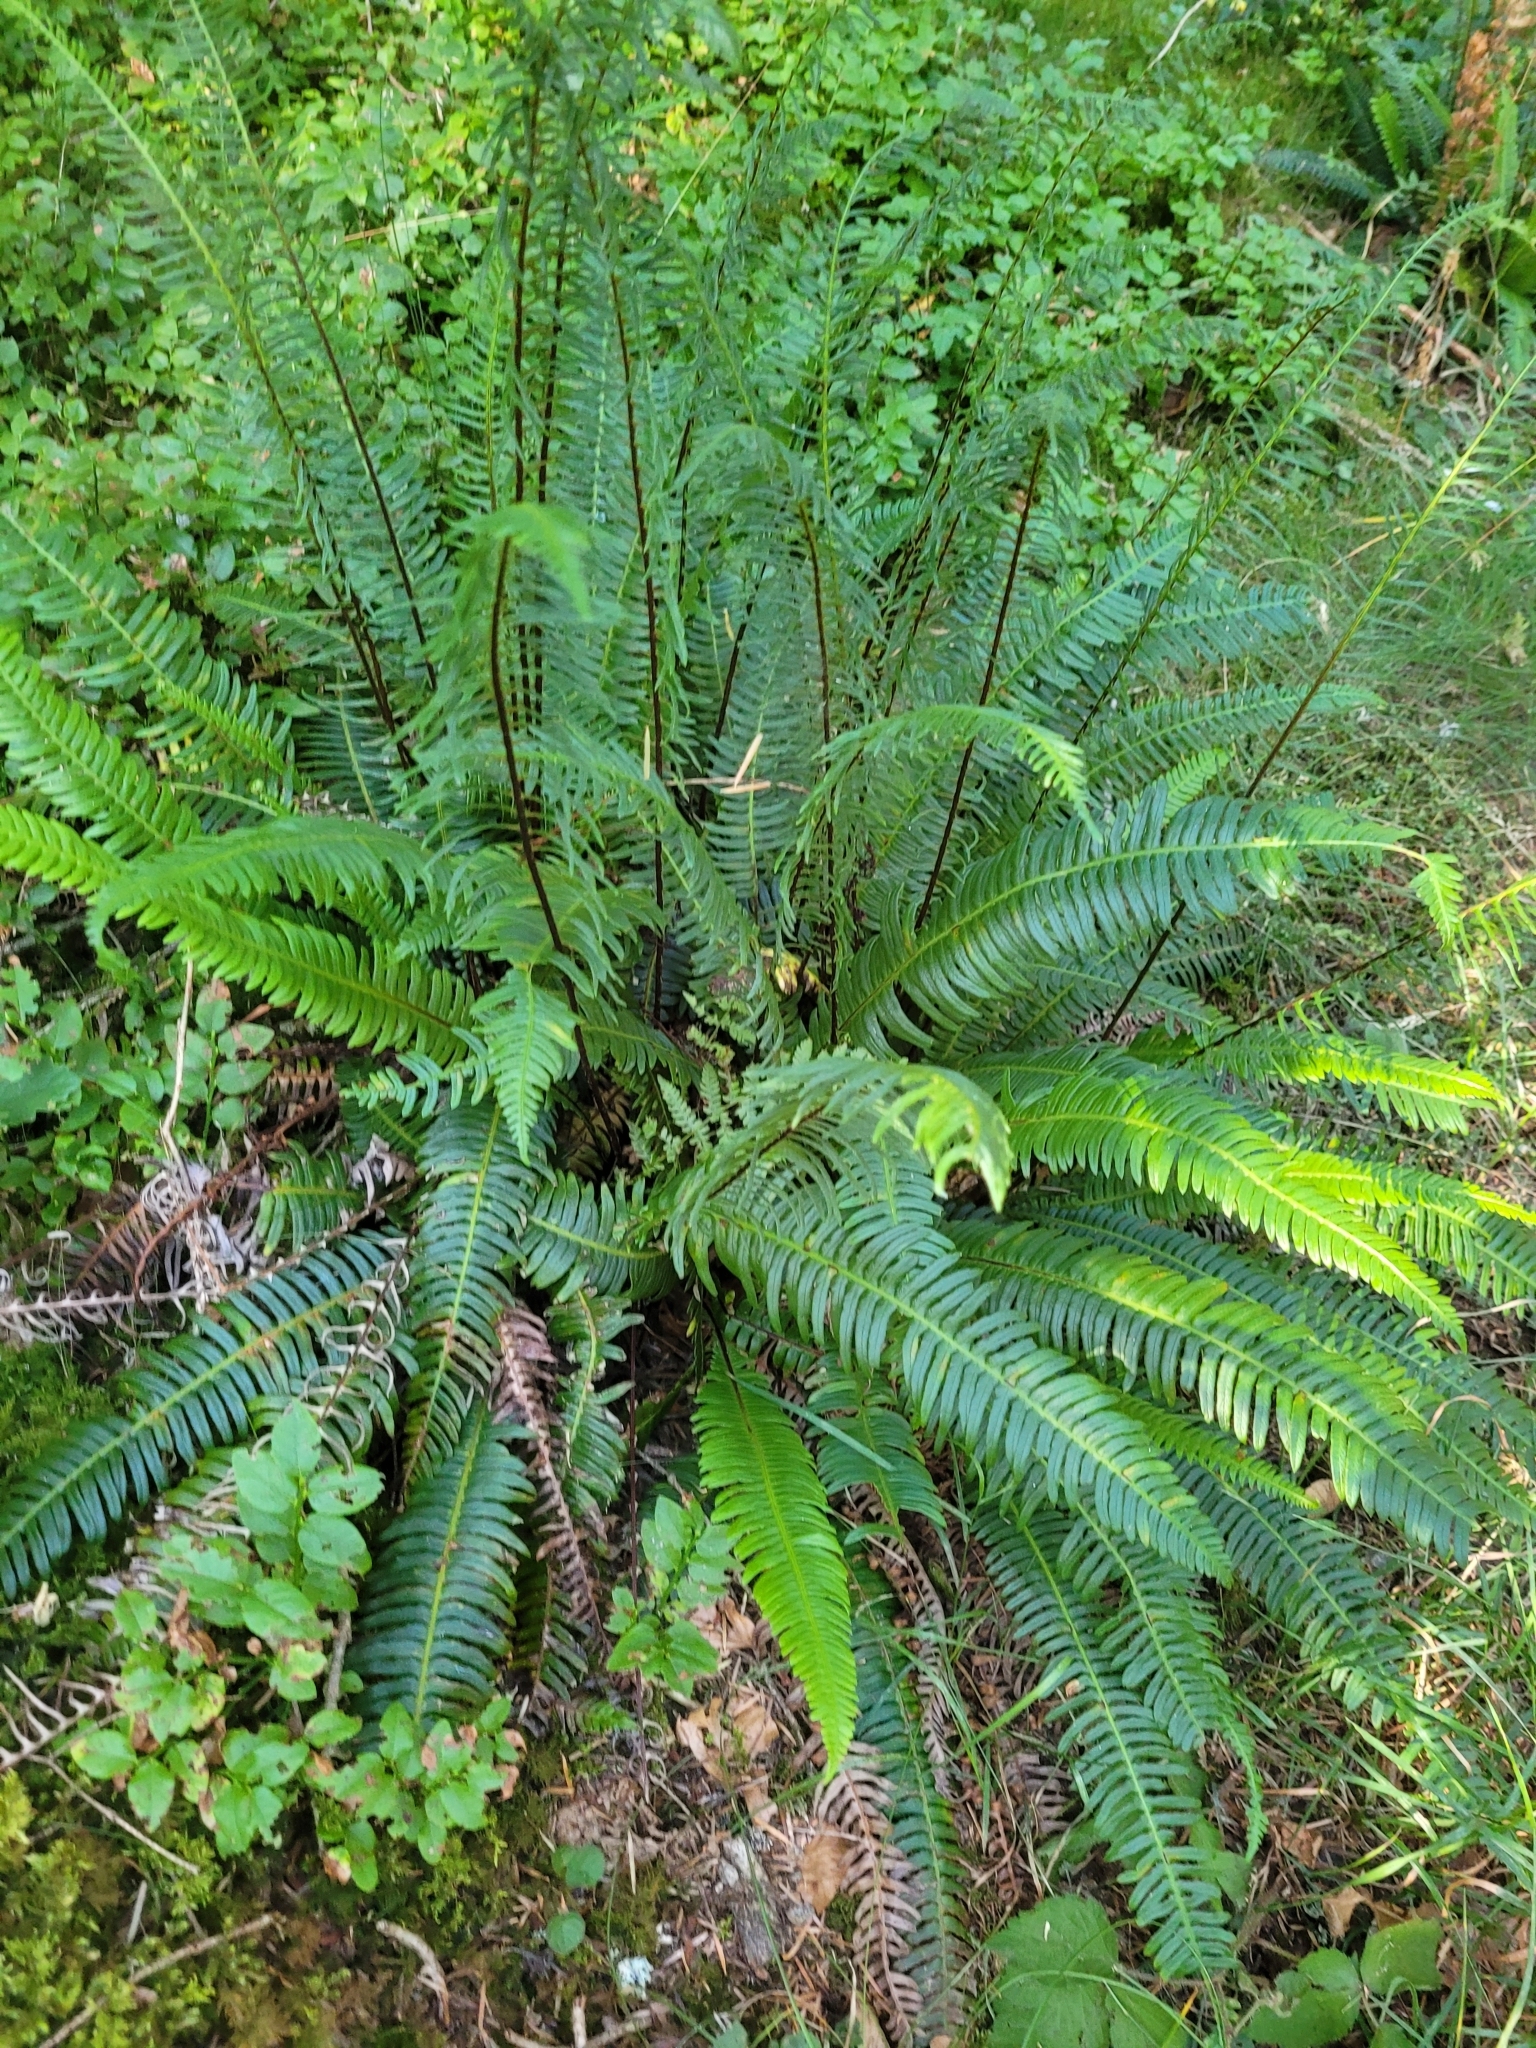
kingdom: Plantae
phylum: Tracheophyta
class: Polypodiopsida
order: Polypodiales
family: Blechnaceae
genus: Struthiopteris
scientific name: Struthiopteris spicant
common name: Deer fern
